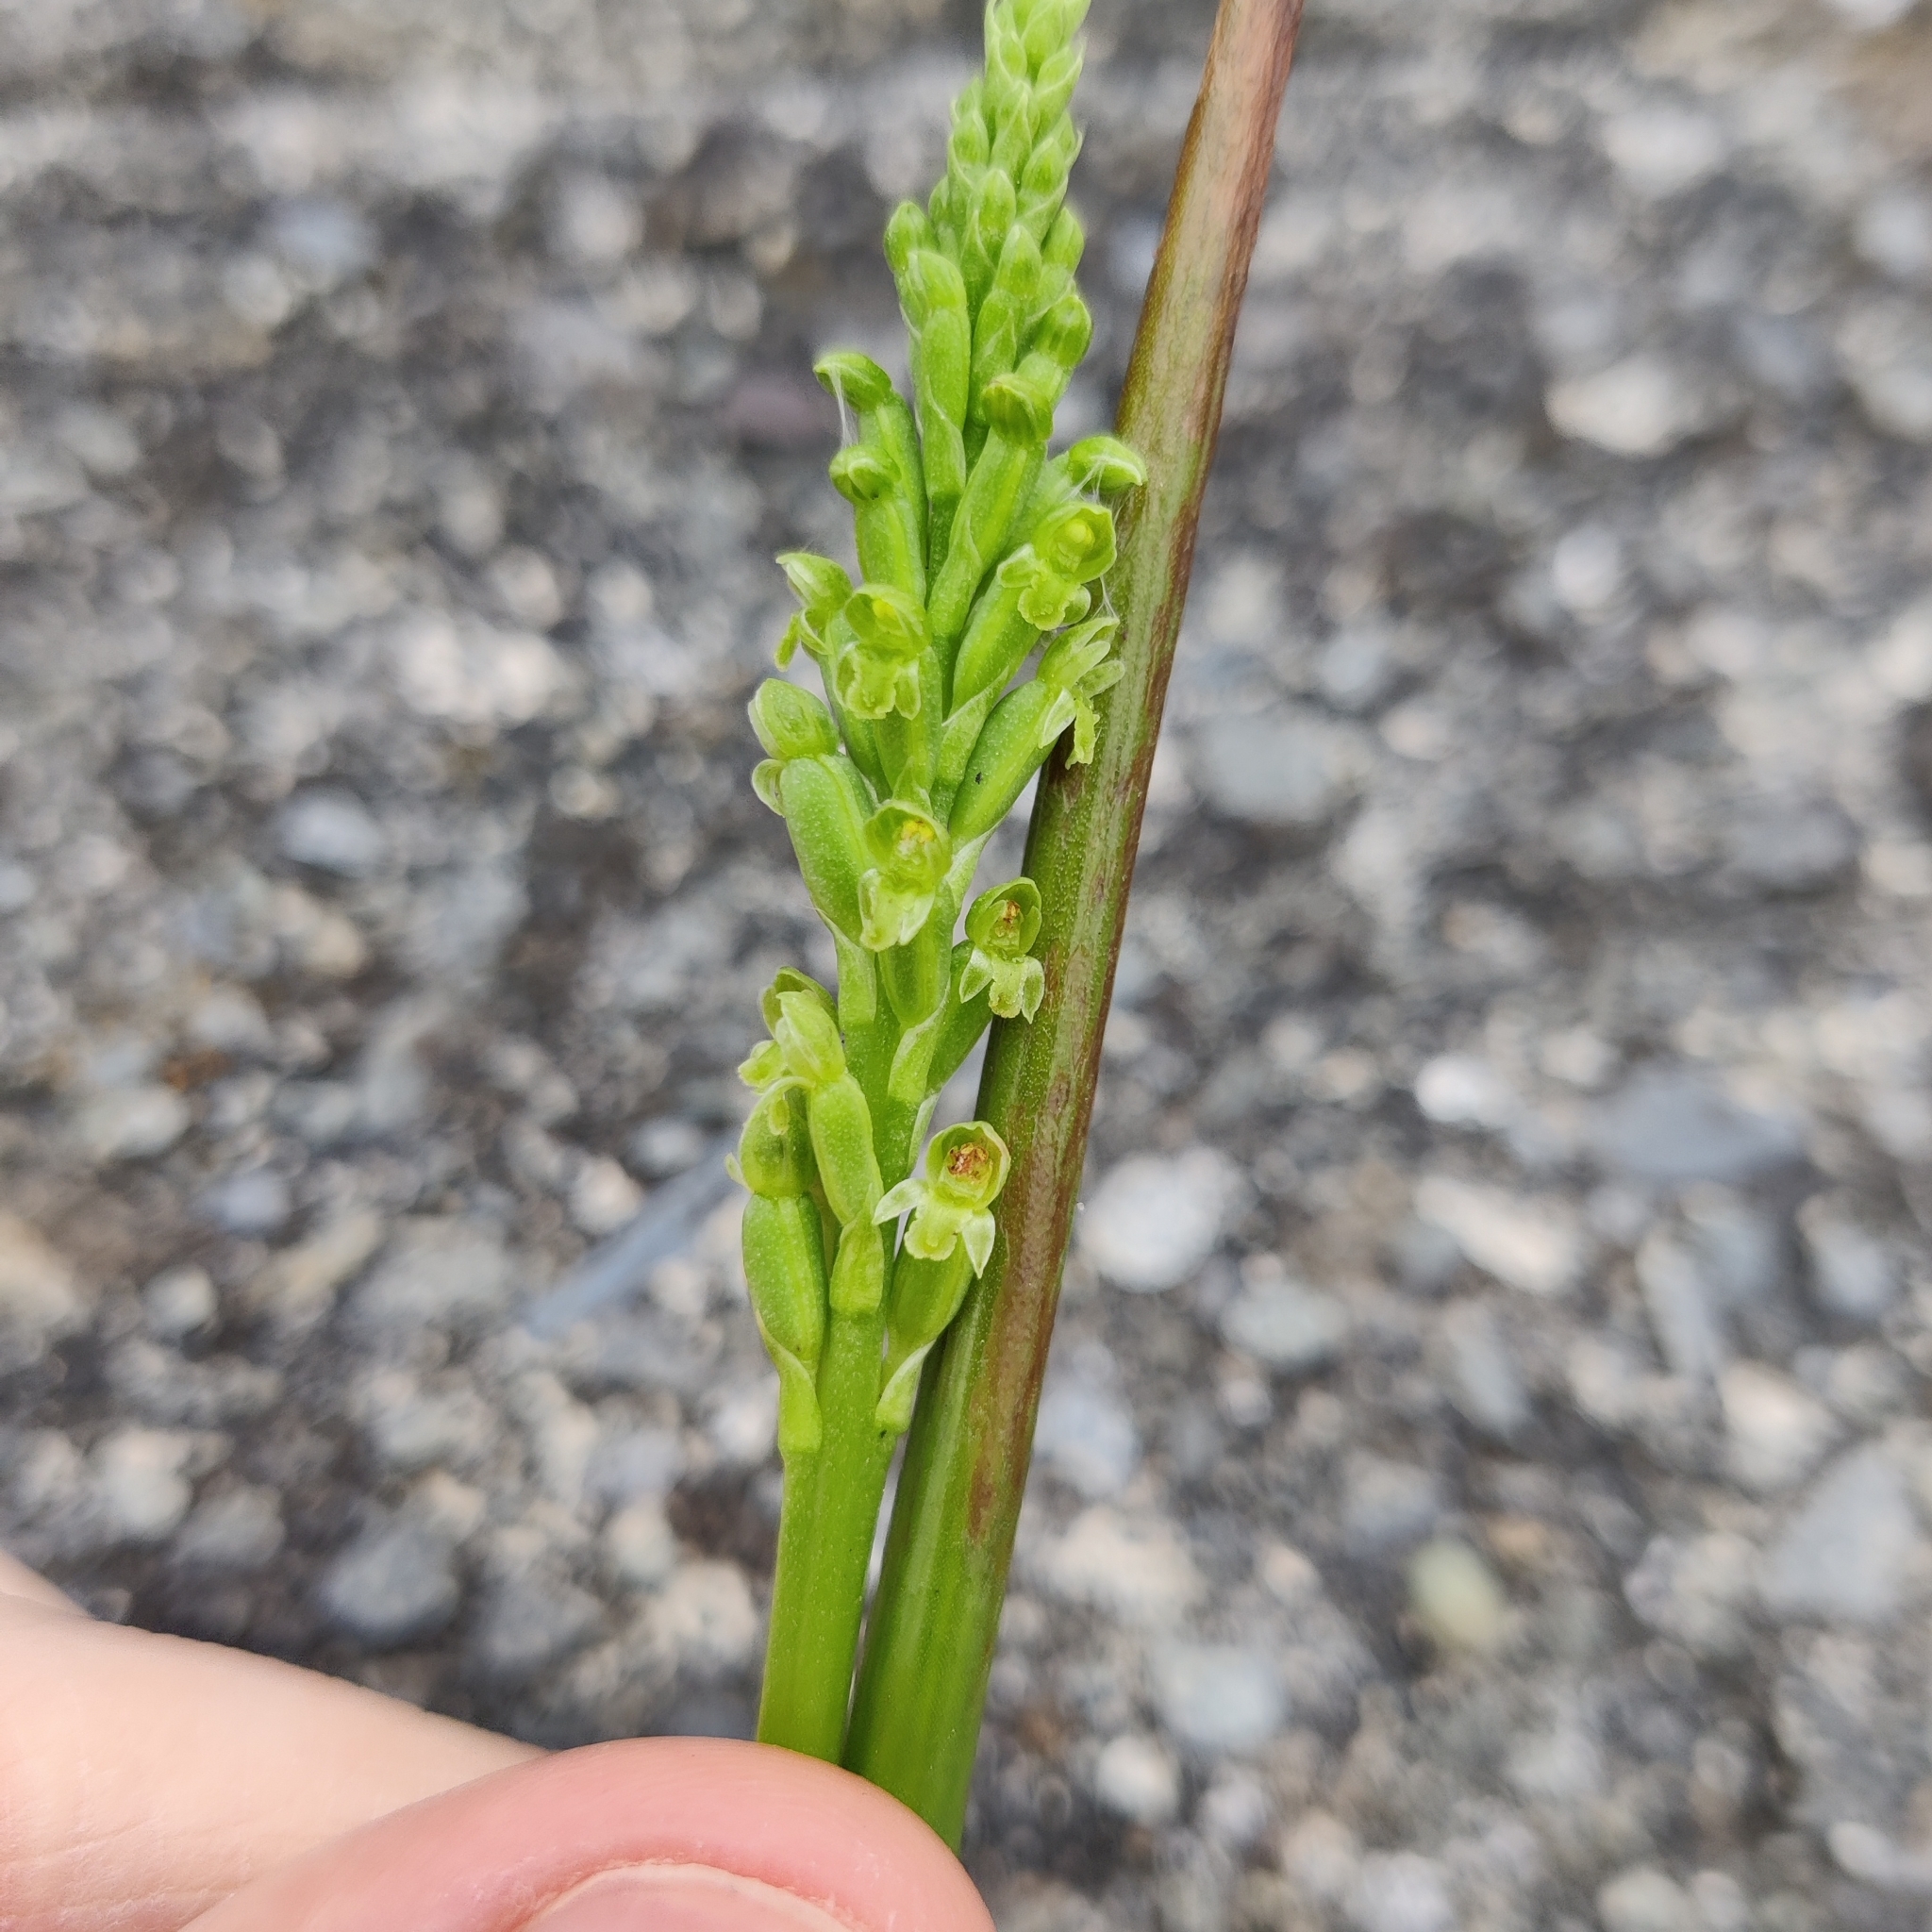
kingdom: Plantae
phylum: Tracheophyta
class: Liliopsida
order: Asparagales
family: Orchidaceae
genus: Microtis
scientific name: Microtis unifolia
